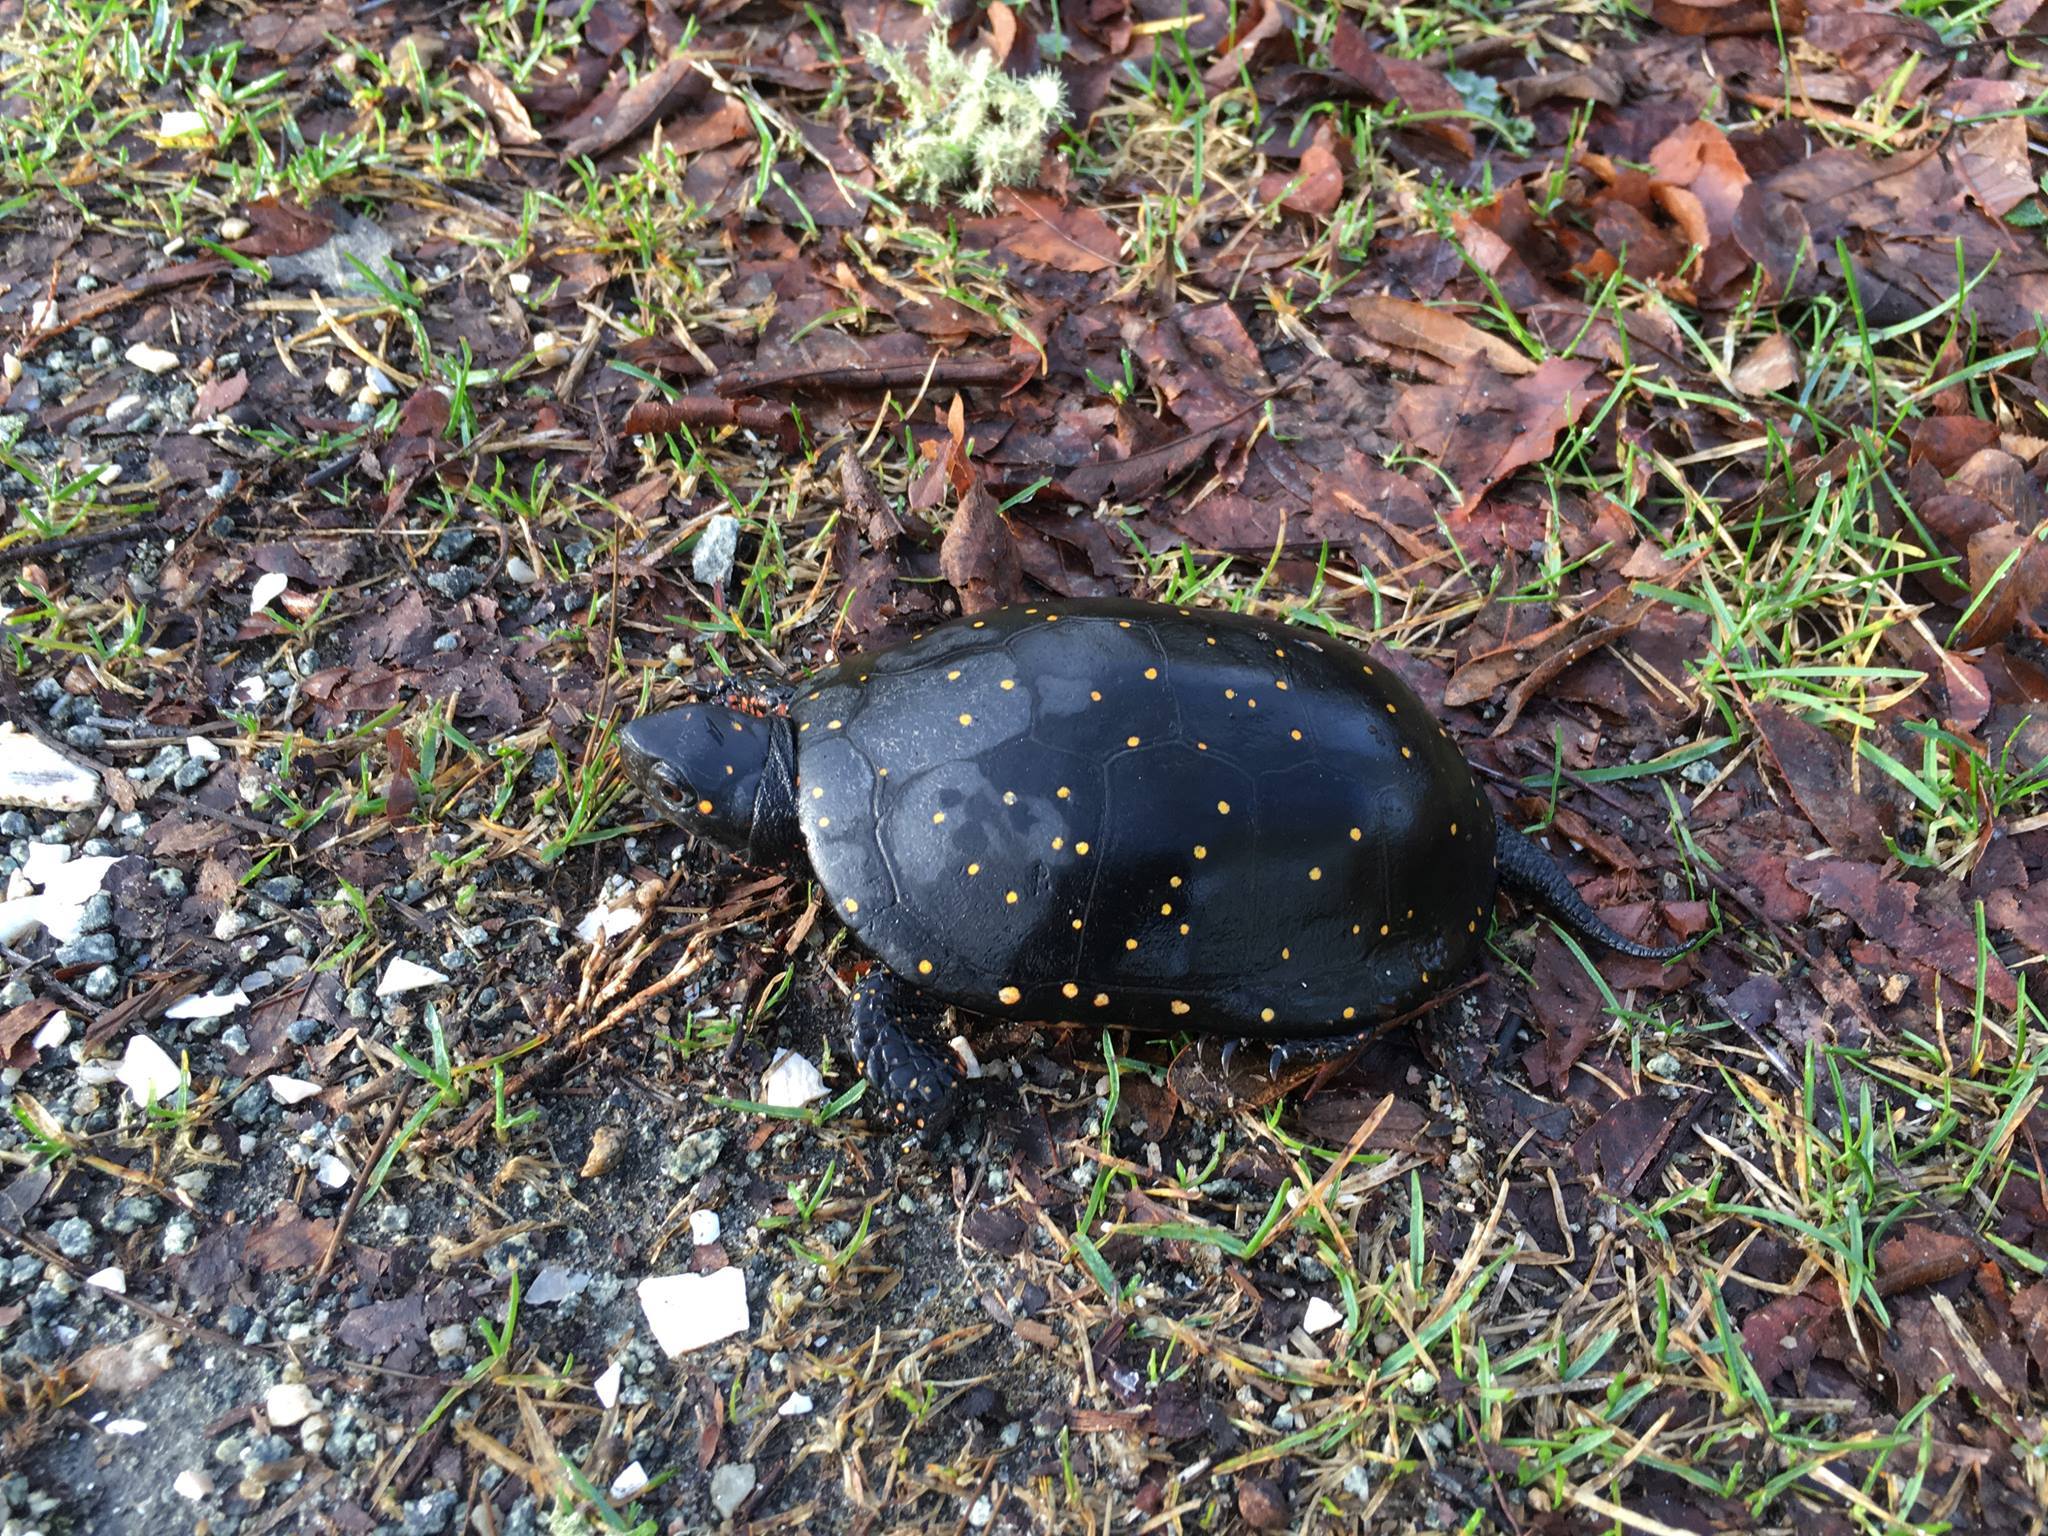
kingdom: Animalia
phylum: Chordata
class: Testudines
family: Emydidae
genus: Clemmys
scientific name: Clemmys guttata
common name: Spotted turtle
